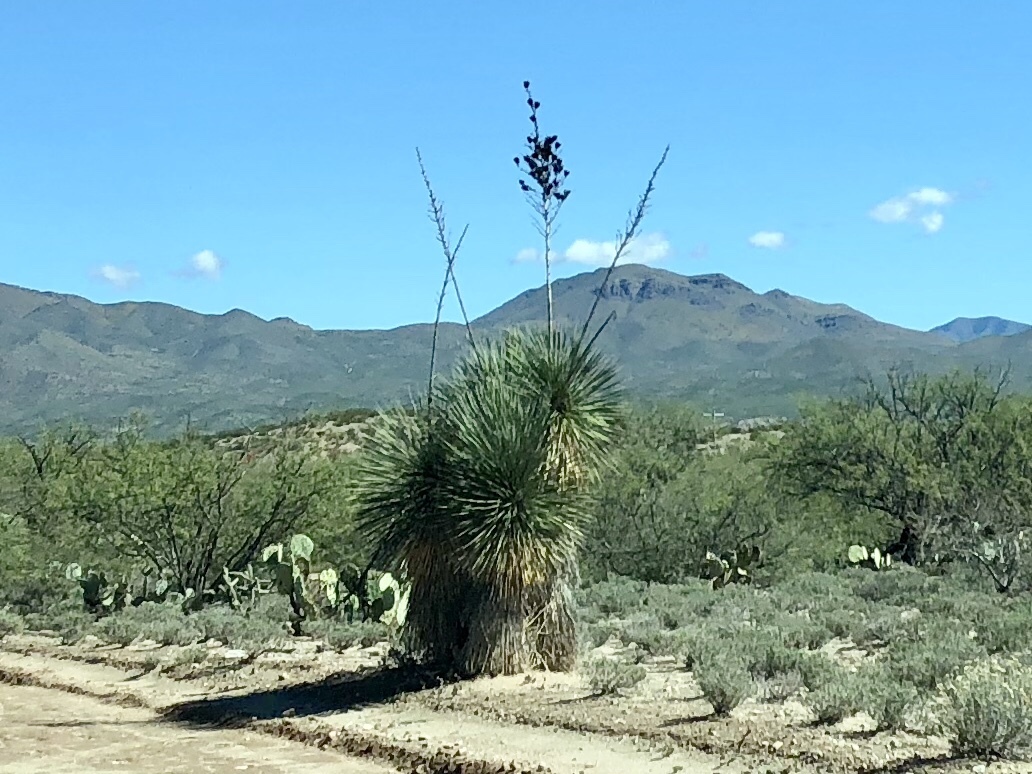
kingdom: Plantae
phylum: Tracheophyta
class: Liliopsida
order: Asparagales
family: Asparagaceae
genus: Yucca
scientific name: Yucca elata
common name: Palmella
